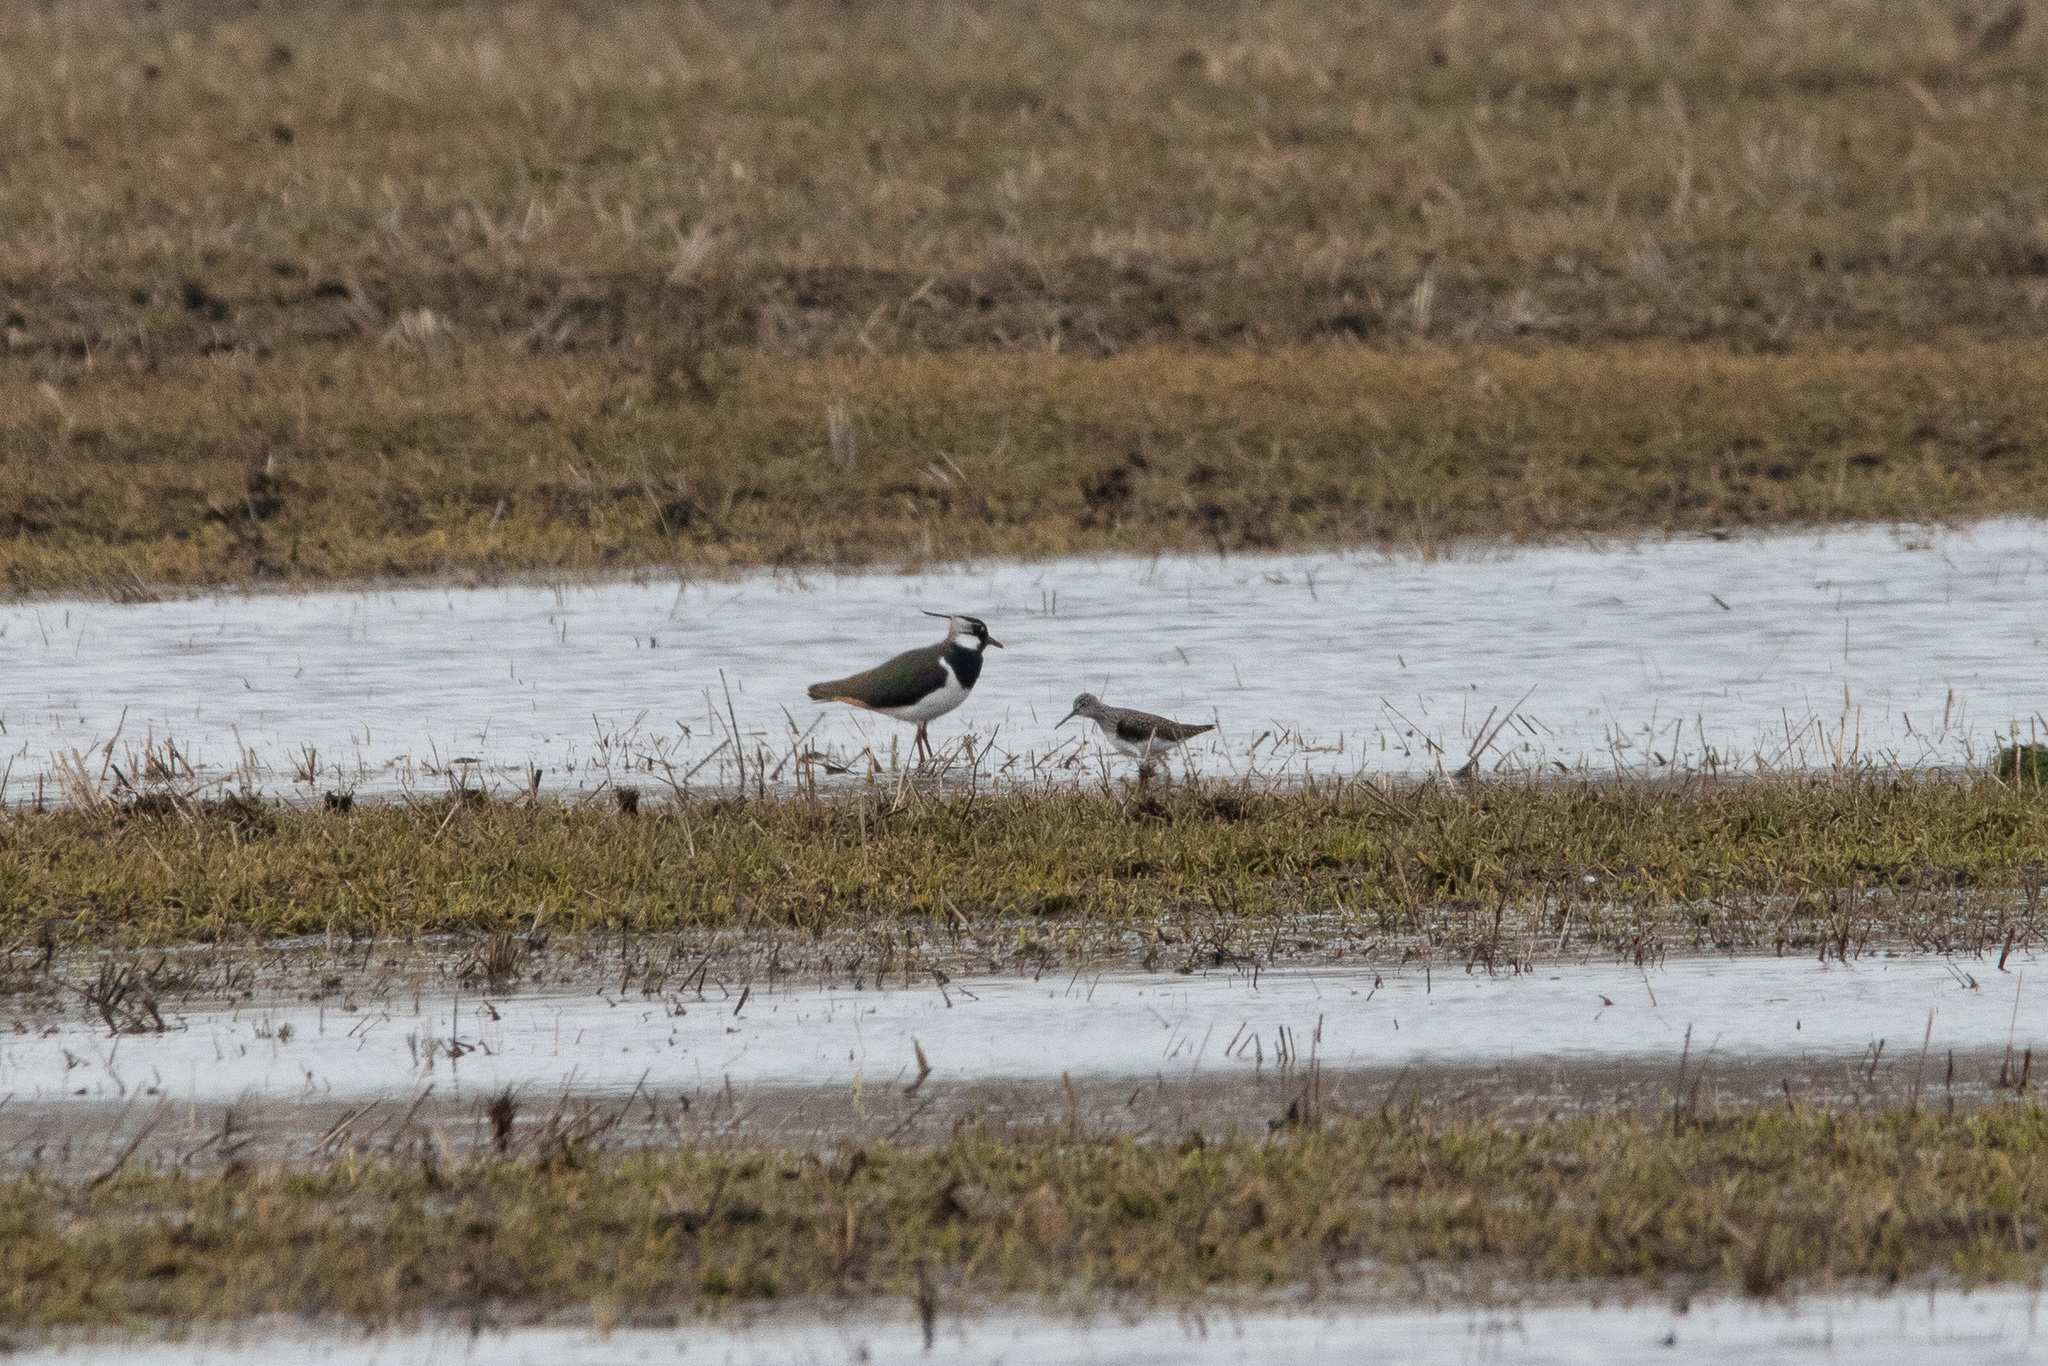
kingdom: Animalia
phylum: Chordata
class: Aves
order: Charadriiformes
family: Scolopacidae
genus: Tringa
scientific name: Tringa ochropus
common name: Green sandpiper
